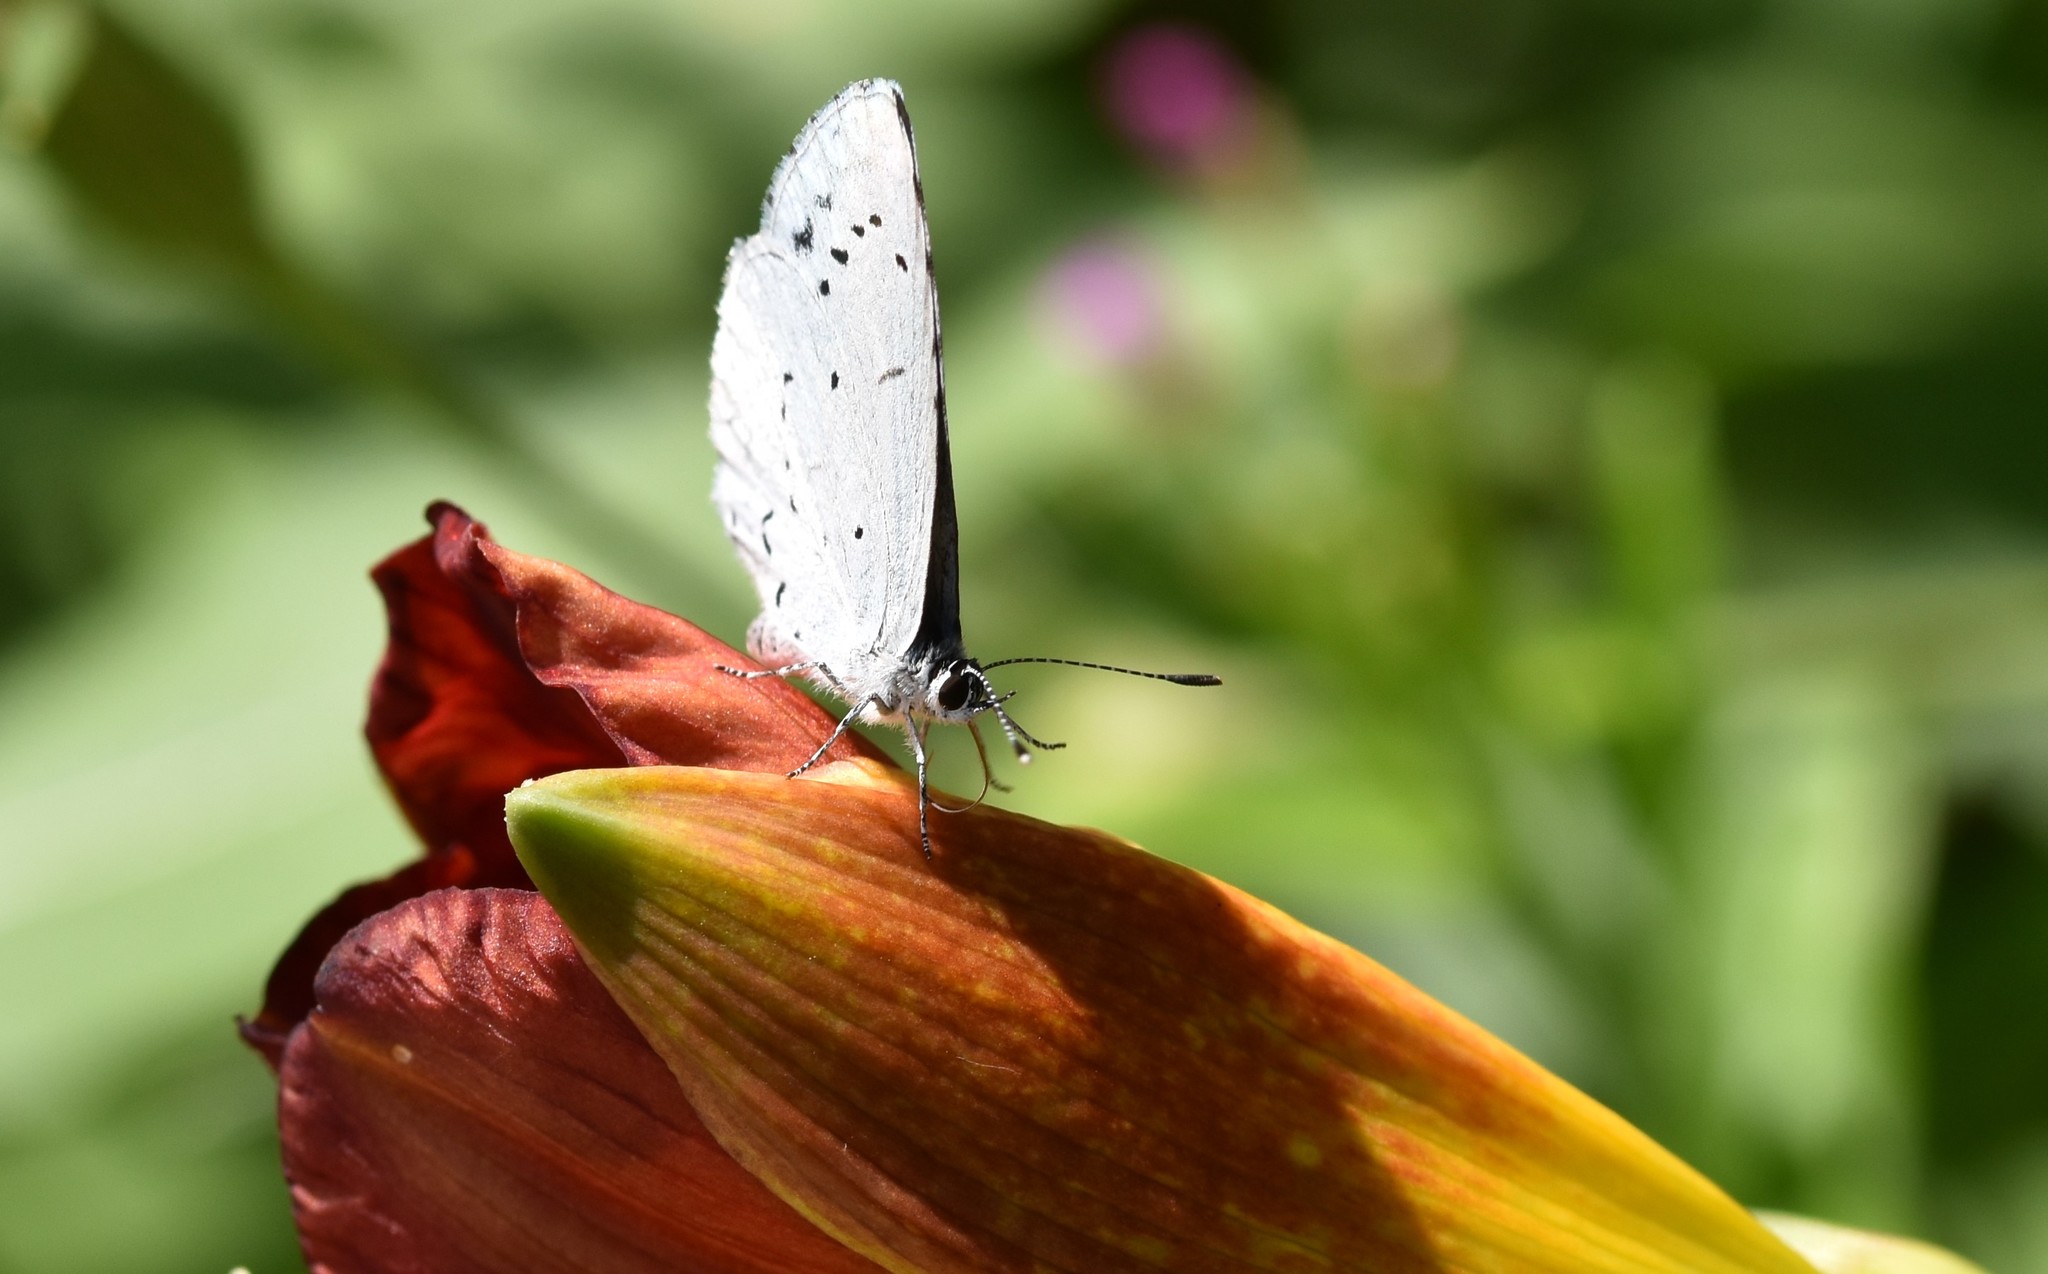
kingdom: Animalia
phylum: Arthropoda
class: Insecta
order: Lepidoptera
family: Lycaenidae
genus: Celastrina
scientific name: Celastrina argiolus
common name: Holly blue
